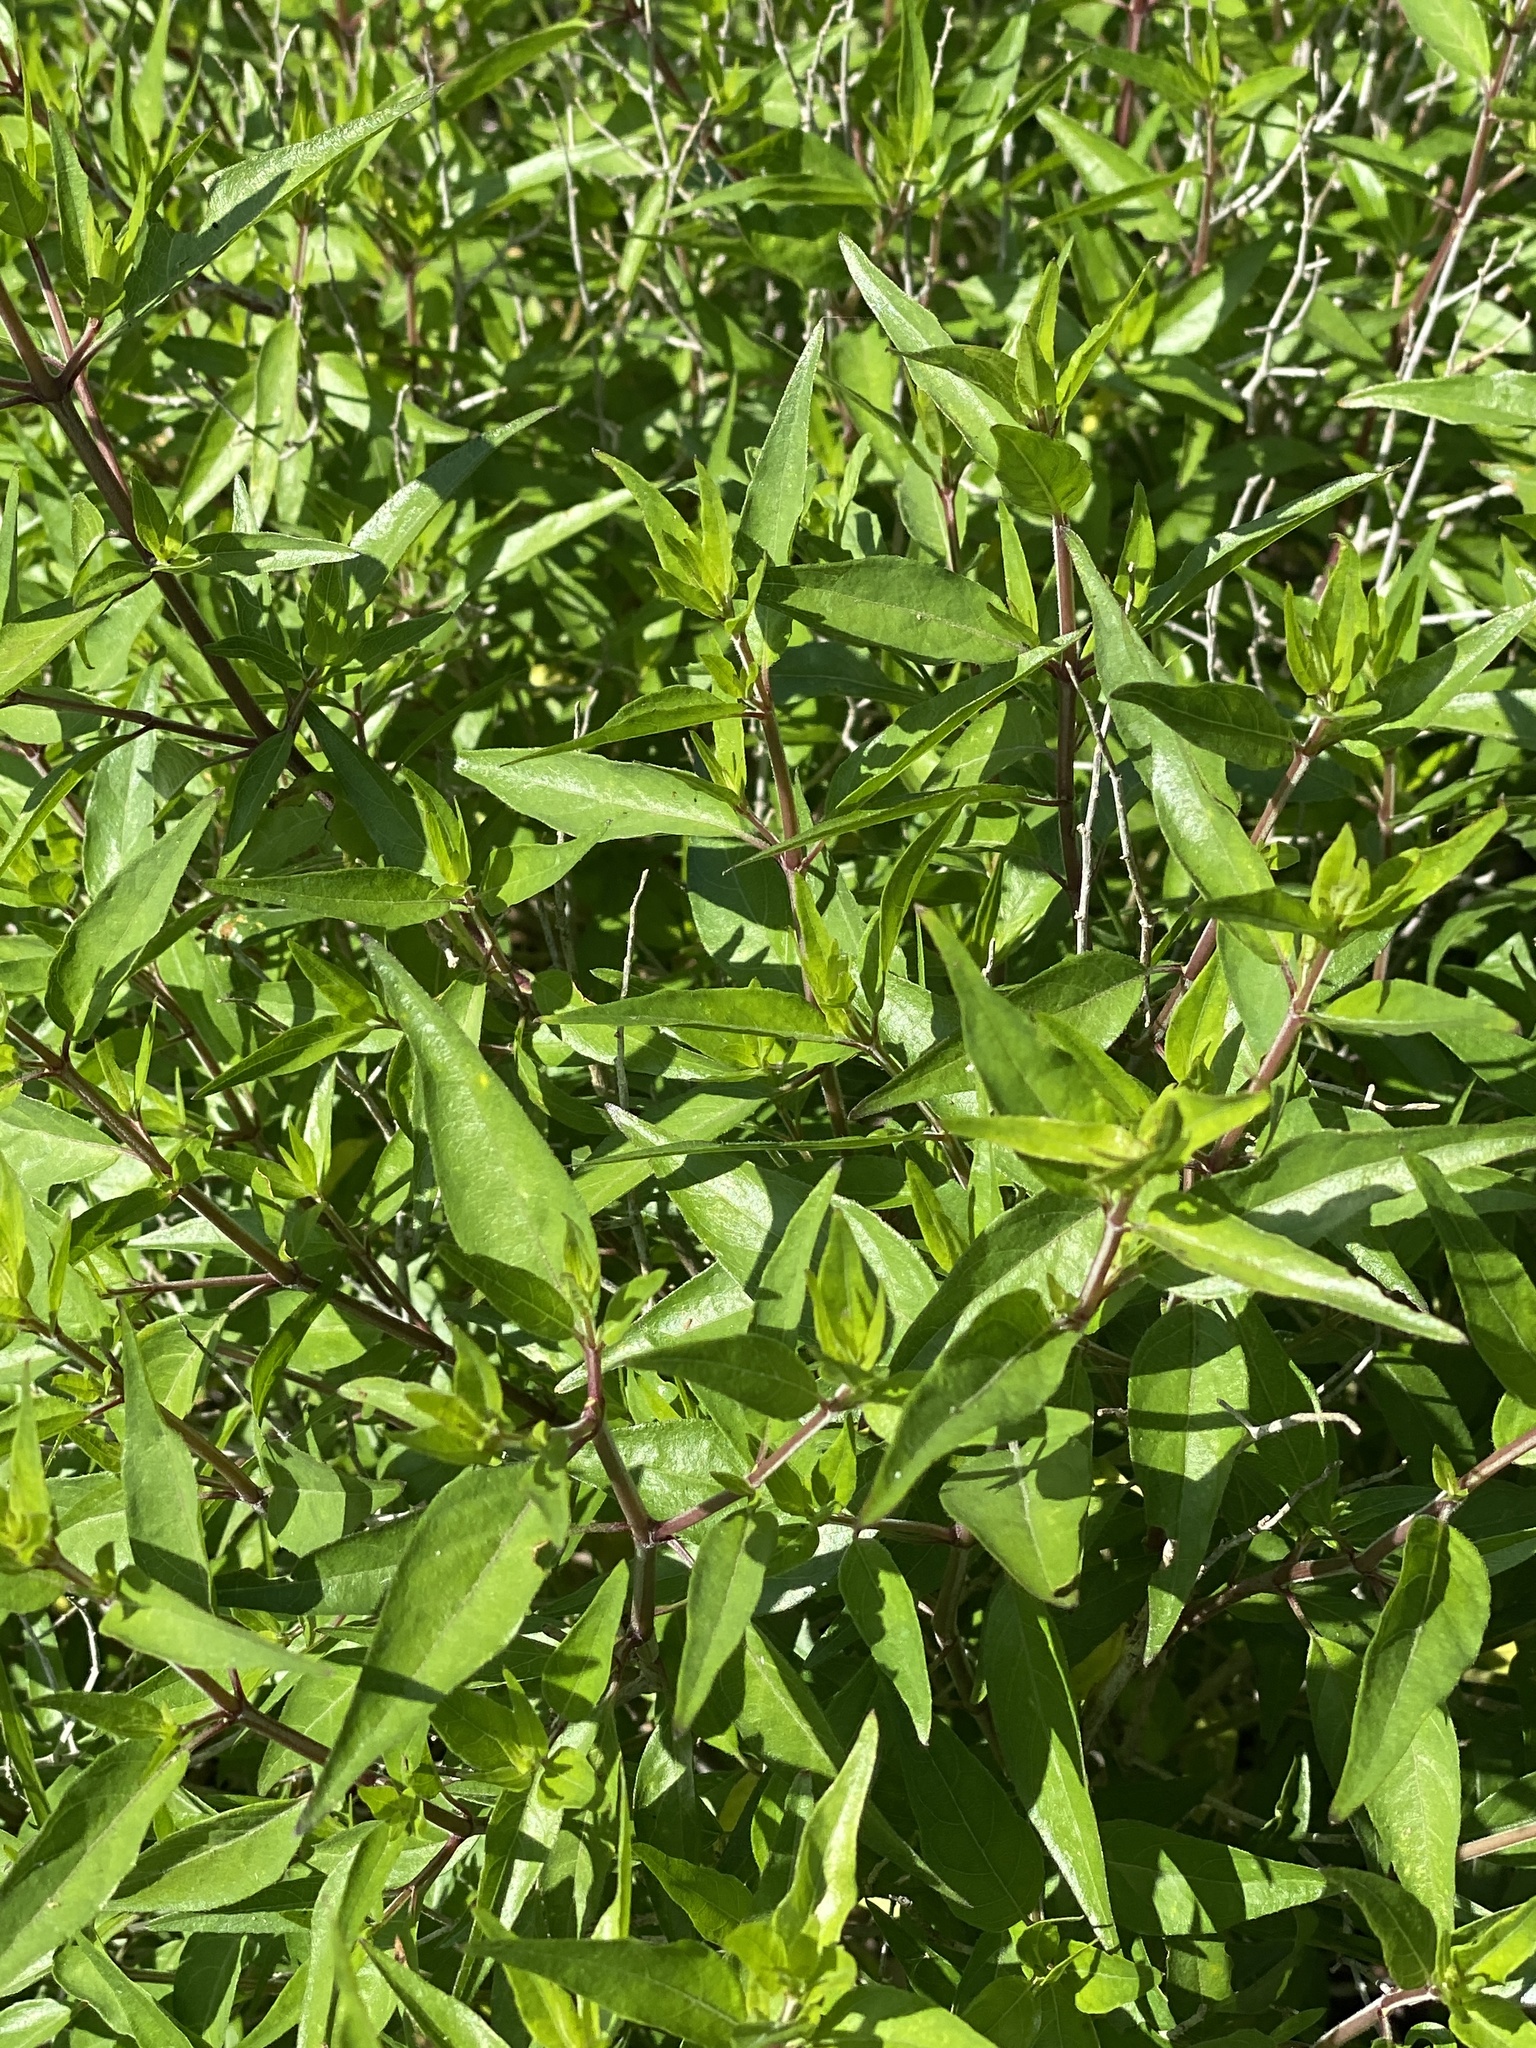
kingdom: Plantae
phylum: Tracheophyta
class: Magnoliopsida
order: Lamiales
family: Acanthaceae
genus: Anisacanthus
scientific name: Anisacanthus quadrifidus
